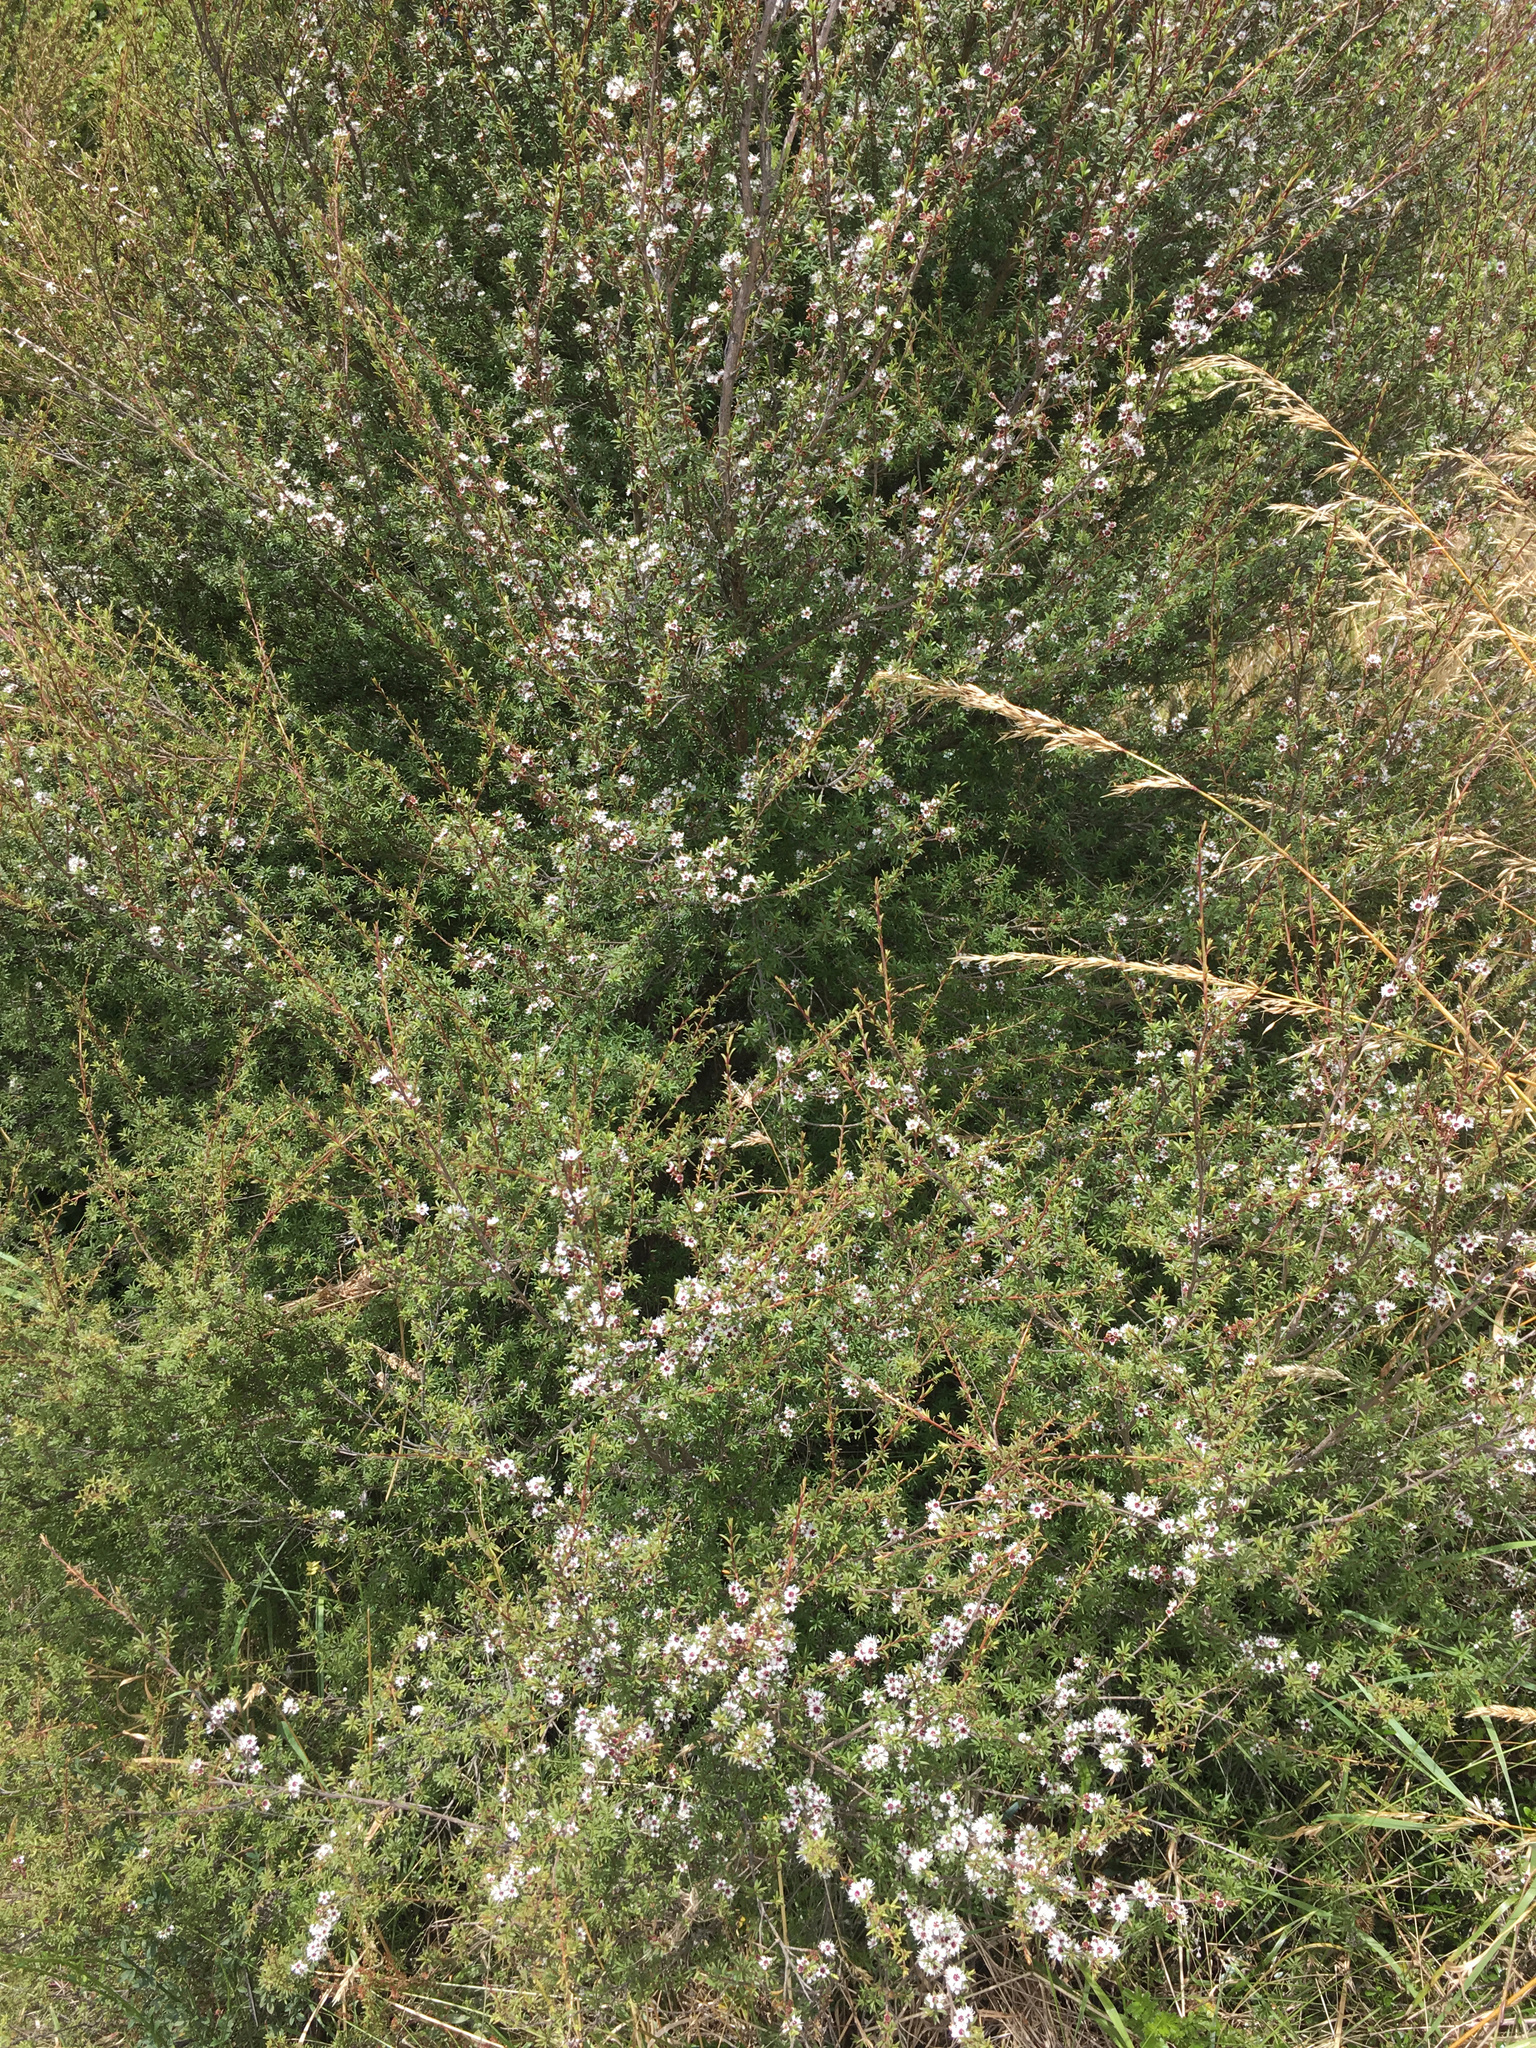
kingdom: Plantae
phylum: Tracheophyta
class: Magnoliopsida
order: Myrtales
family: Myrtaceae
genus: Kunzea
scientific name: Kunzea robusta
